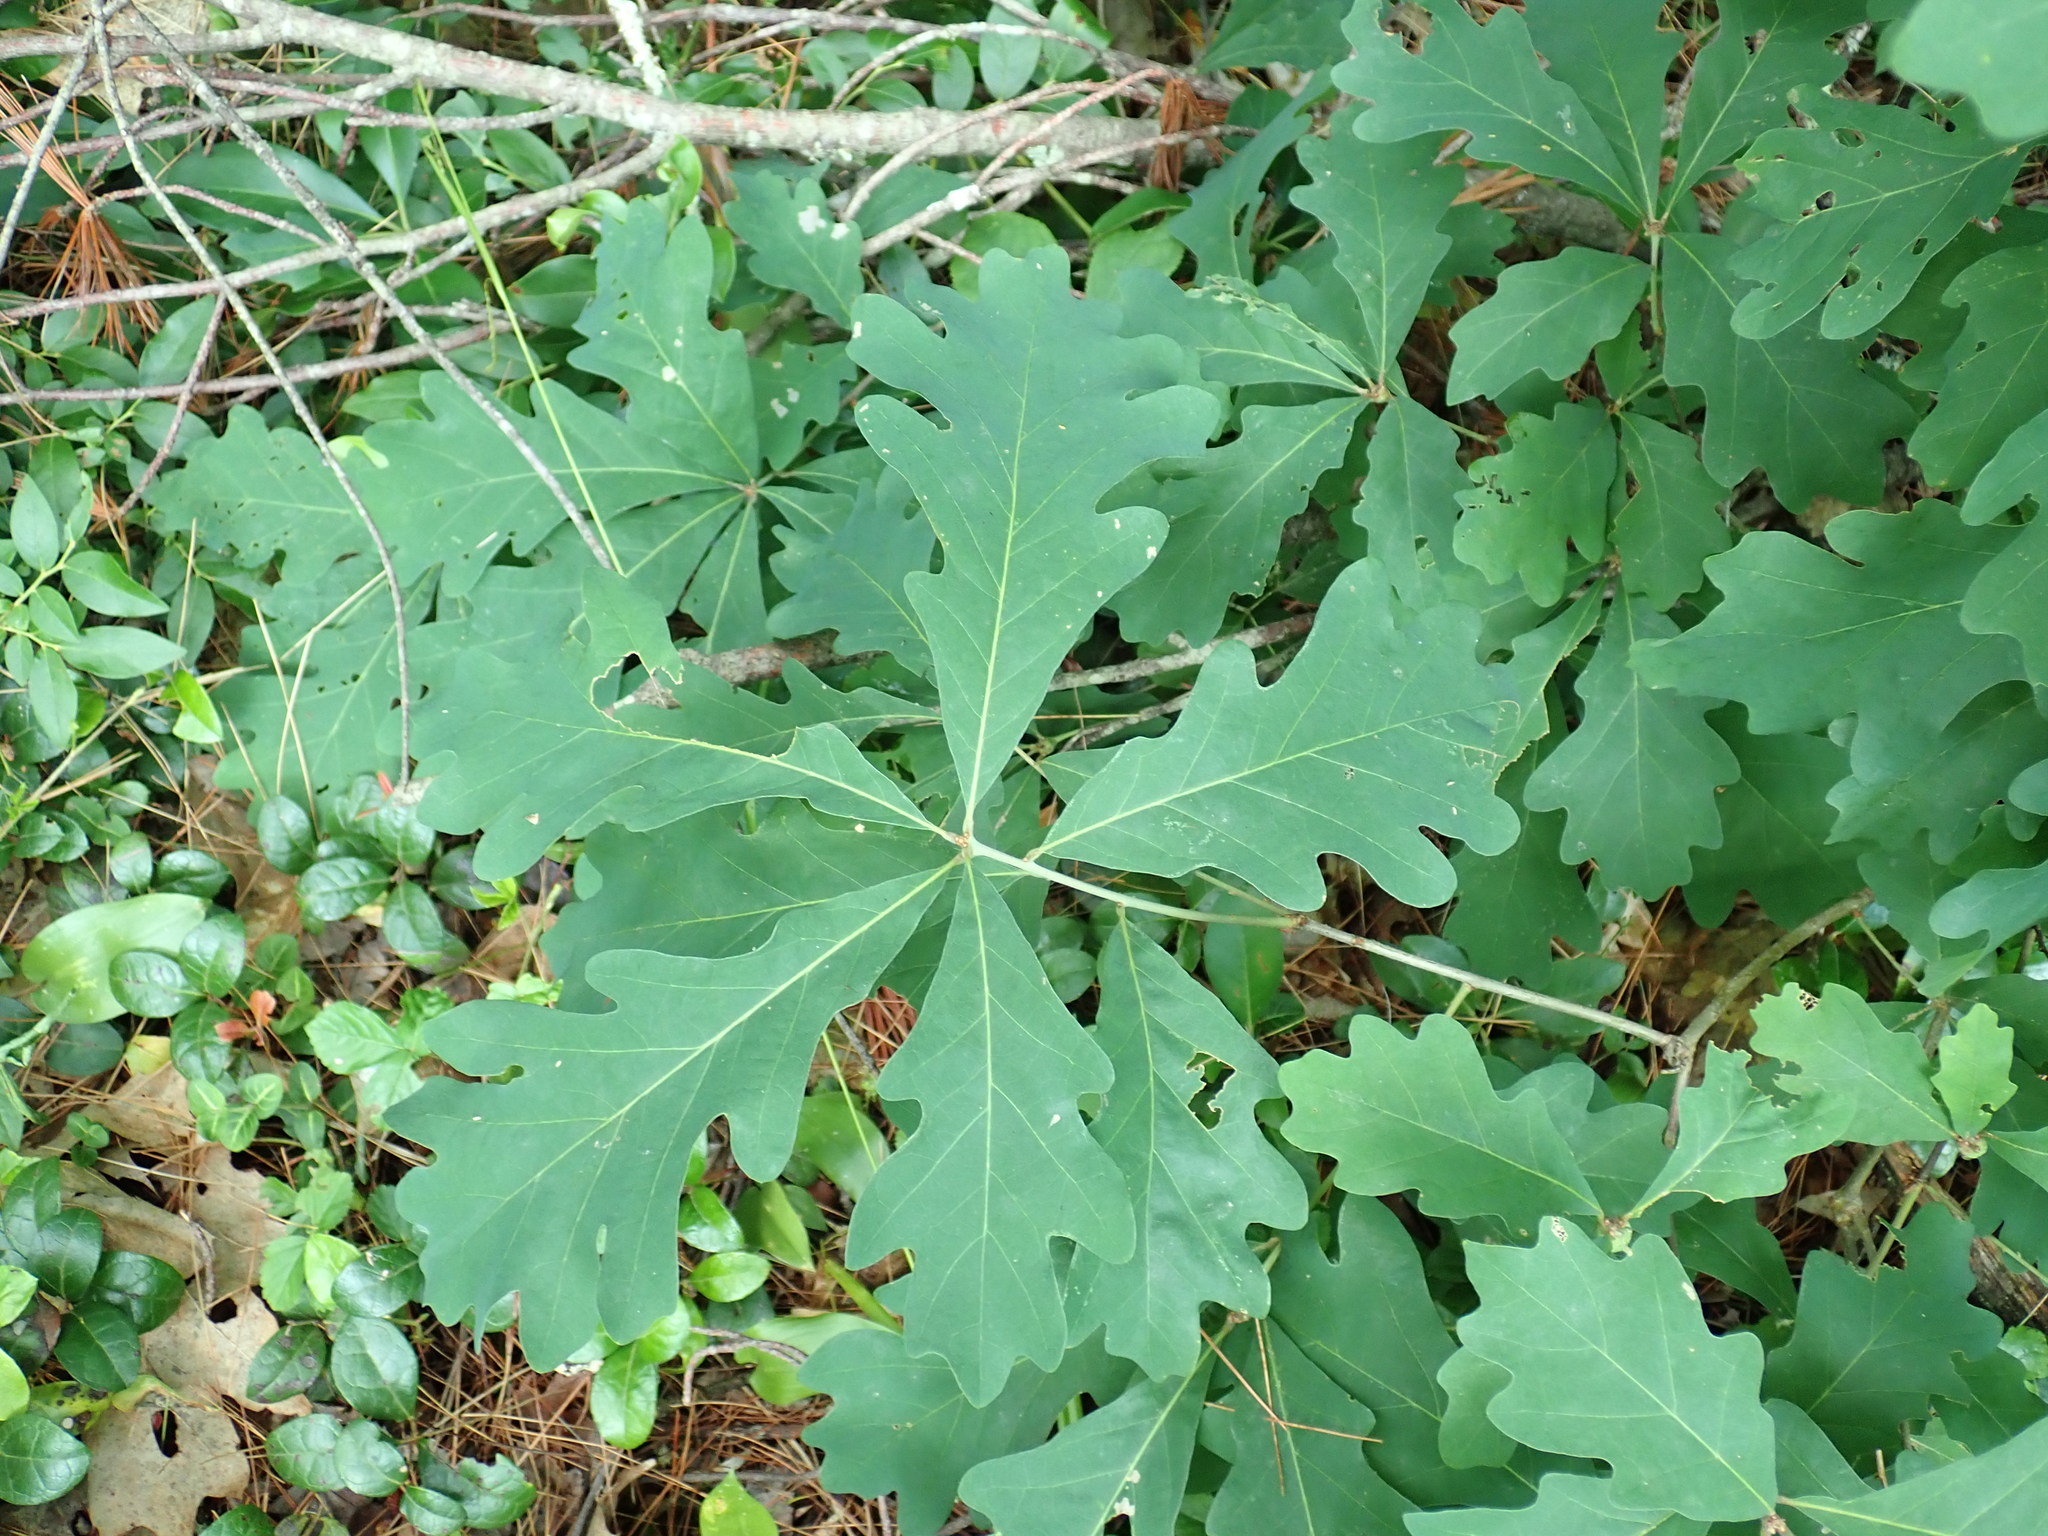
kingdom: Plantae
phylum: Tracheophyta
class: Magnoliopsida
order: Fagales
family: Fagaceae
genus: Quercus
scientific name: Quercus alba
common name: White oak
